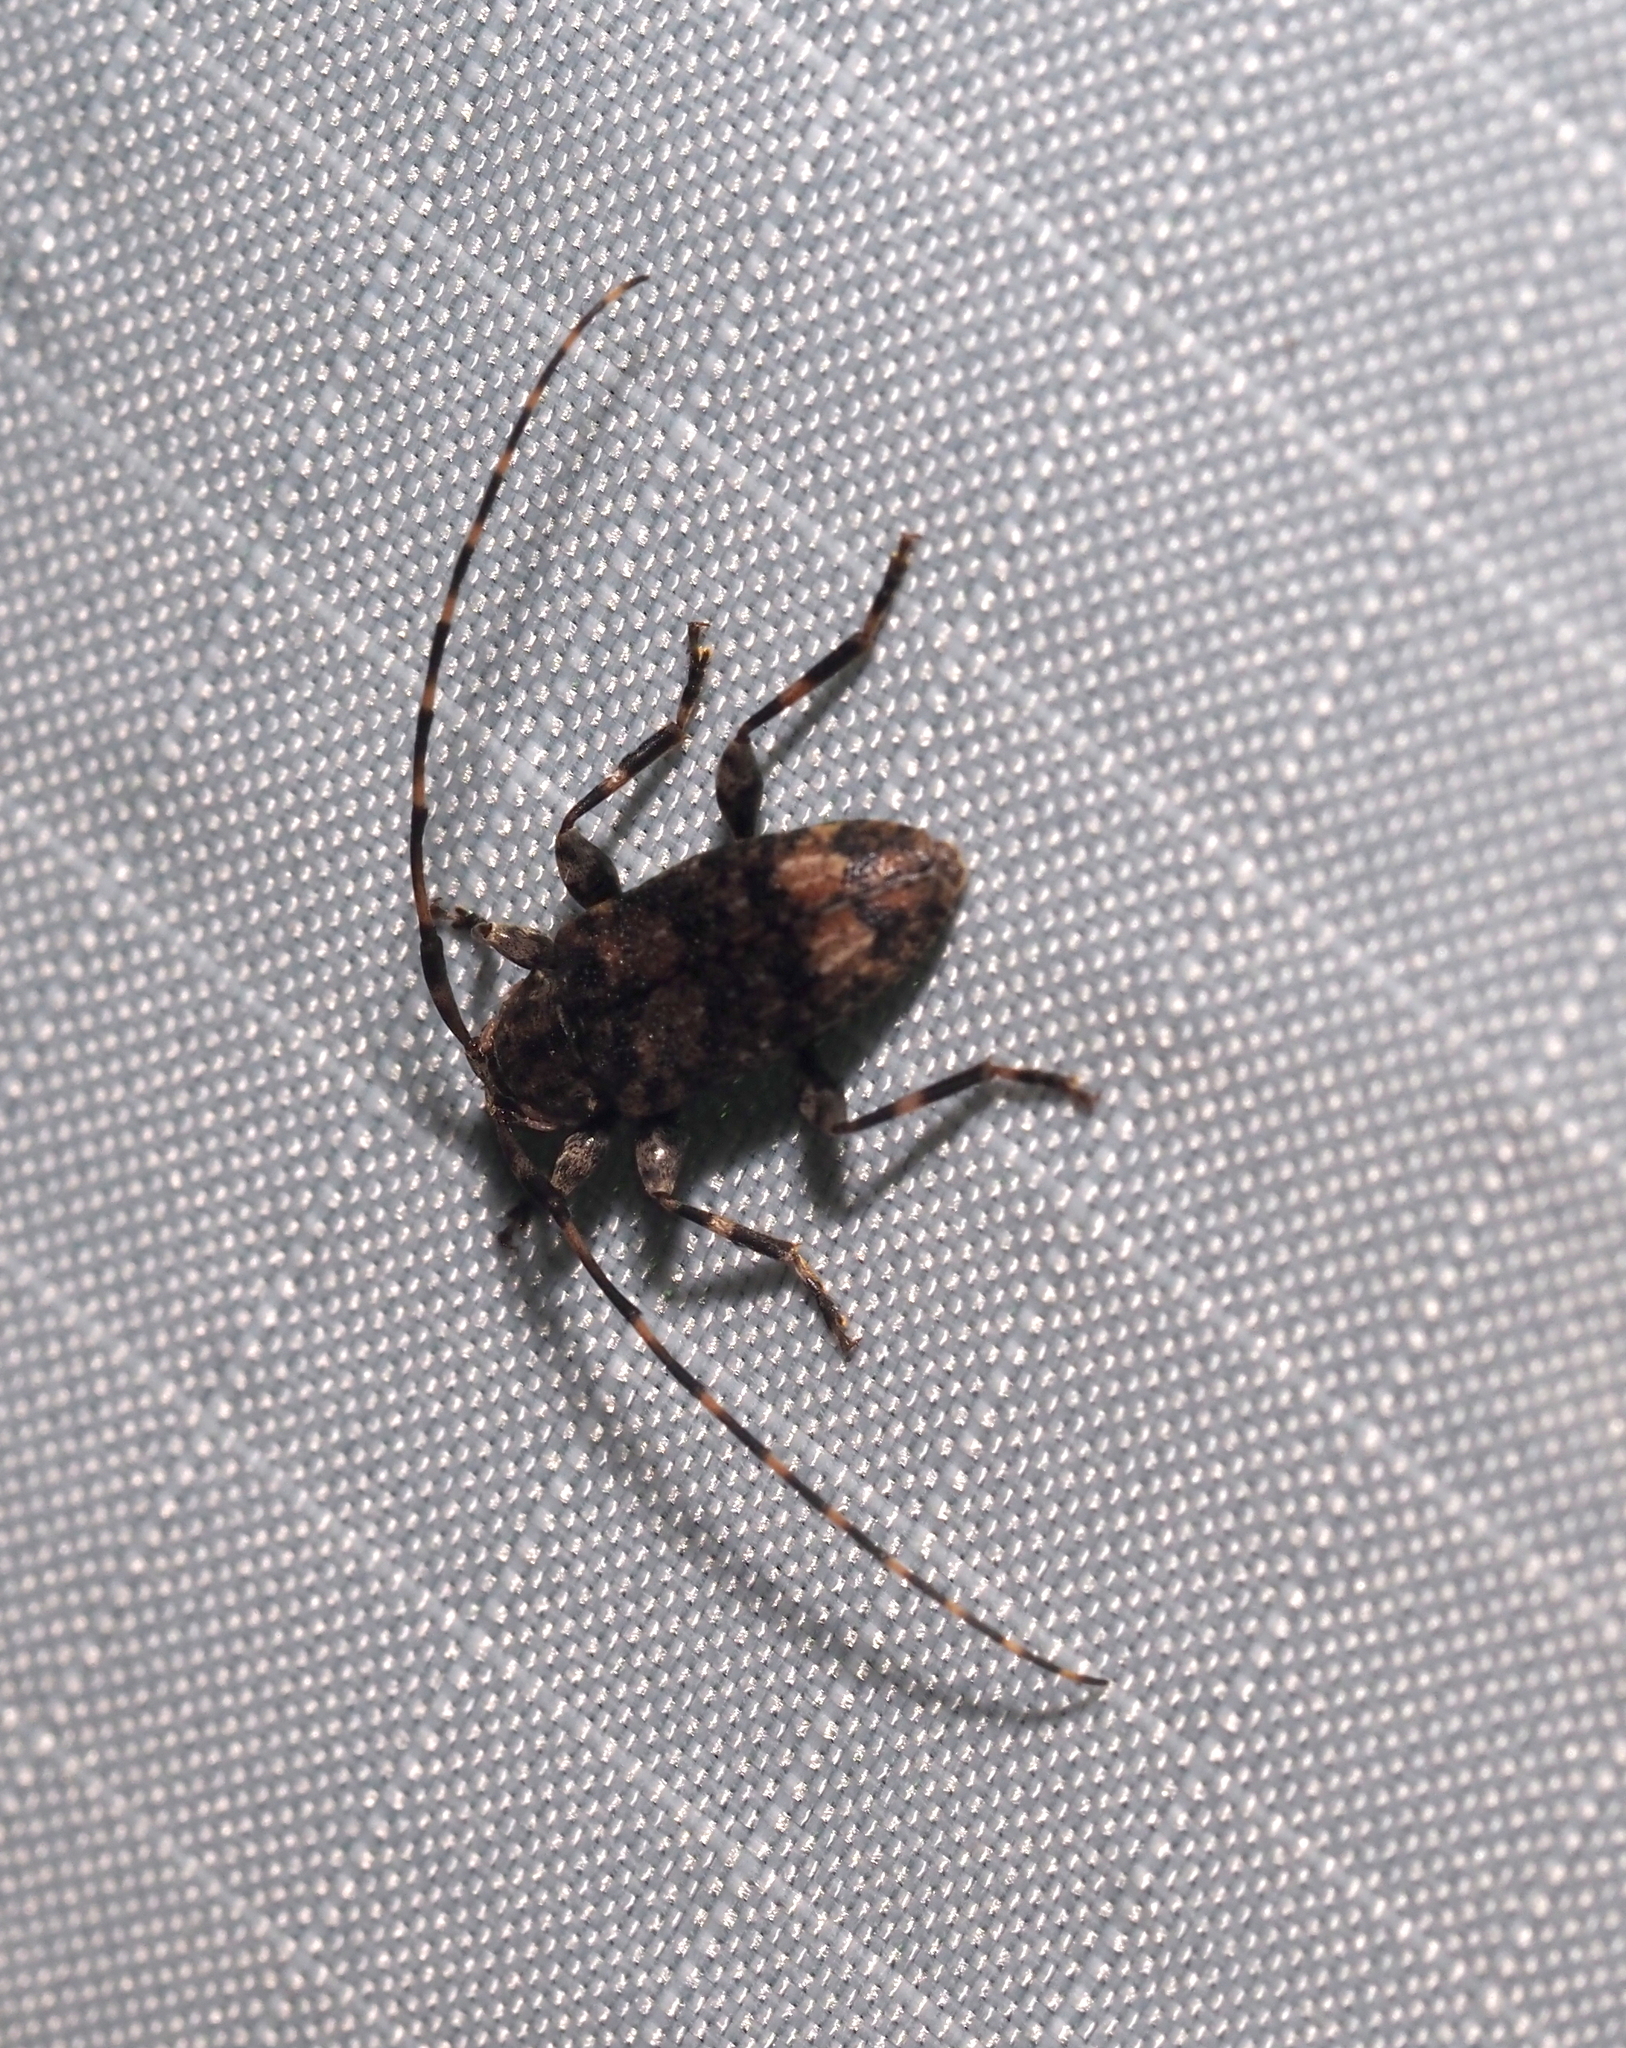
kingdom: Animalia
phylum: Arthropoda
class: Insecta
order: Coleoptera
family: Cerambycidae
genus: Astyleiopus
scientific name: Astyleiopus variegatus
